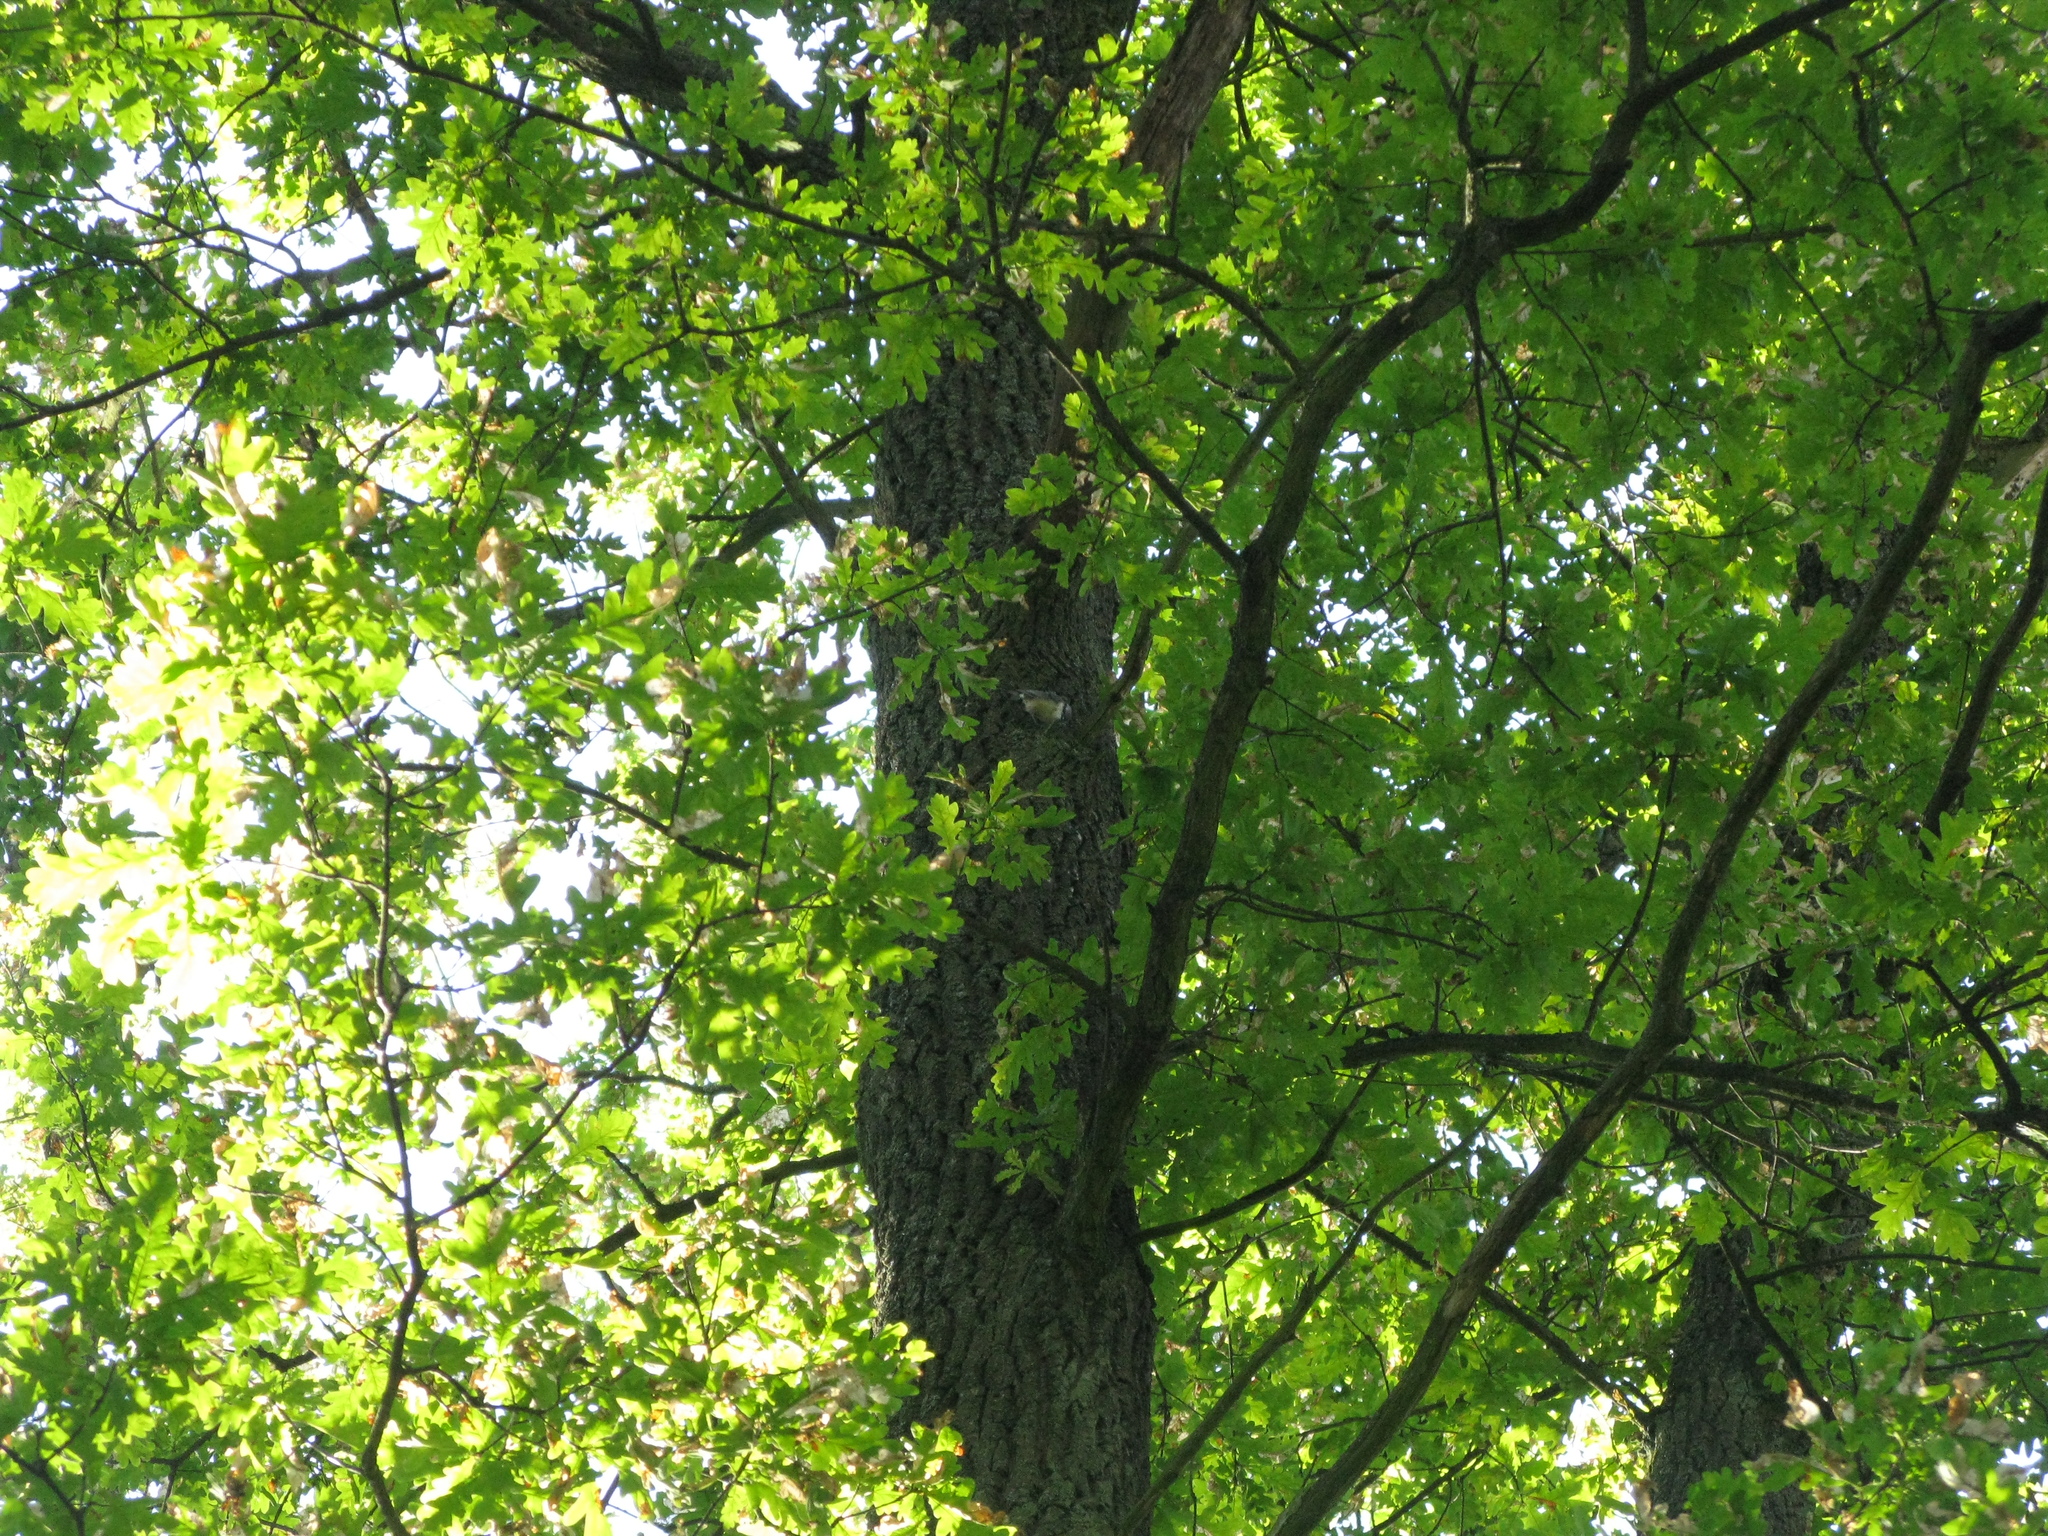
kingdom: Animalia
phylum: Chordata
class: Aves
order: Passeriformes
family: Sittidae
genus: Sitta
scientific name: Sitta europaea
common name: Eurasian nuthatch
